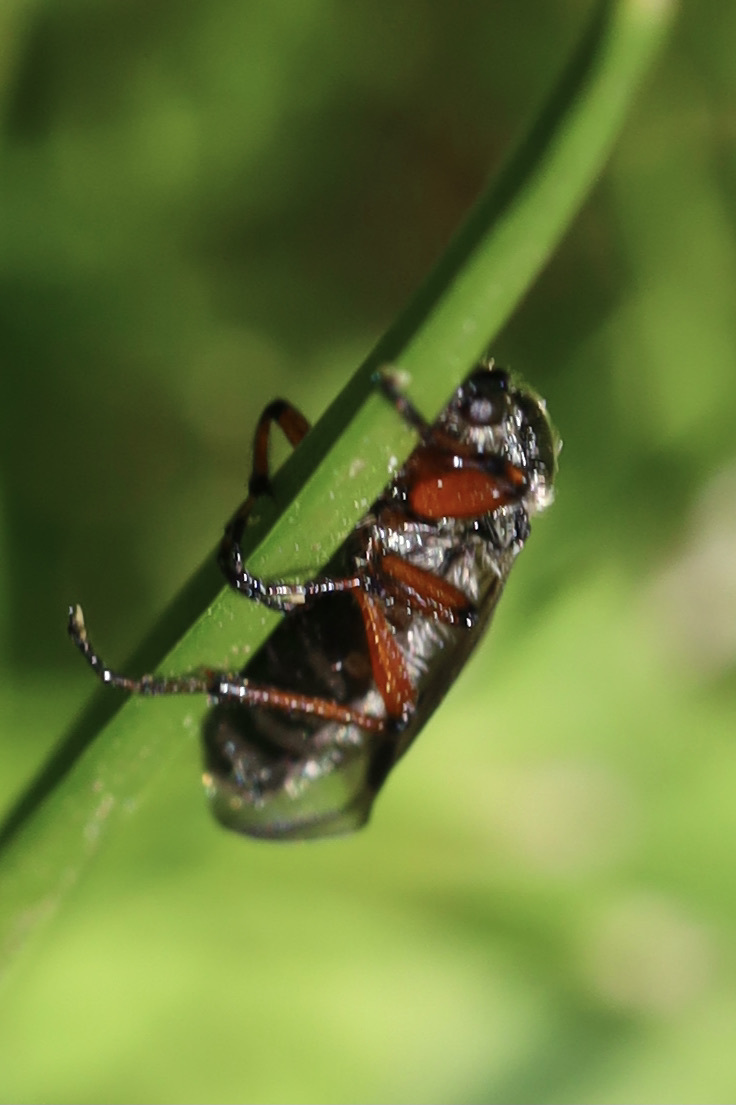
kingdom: Animalia
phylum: Arthropoda
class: Insecta
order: Diptera
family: Bibionidae
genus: Bibio
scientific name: Bibio
